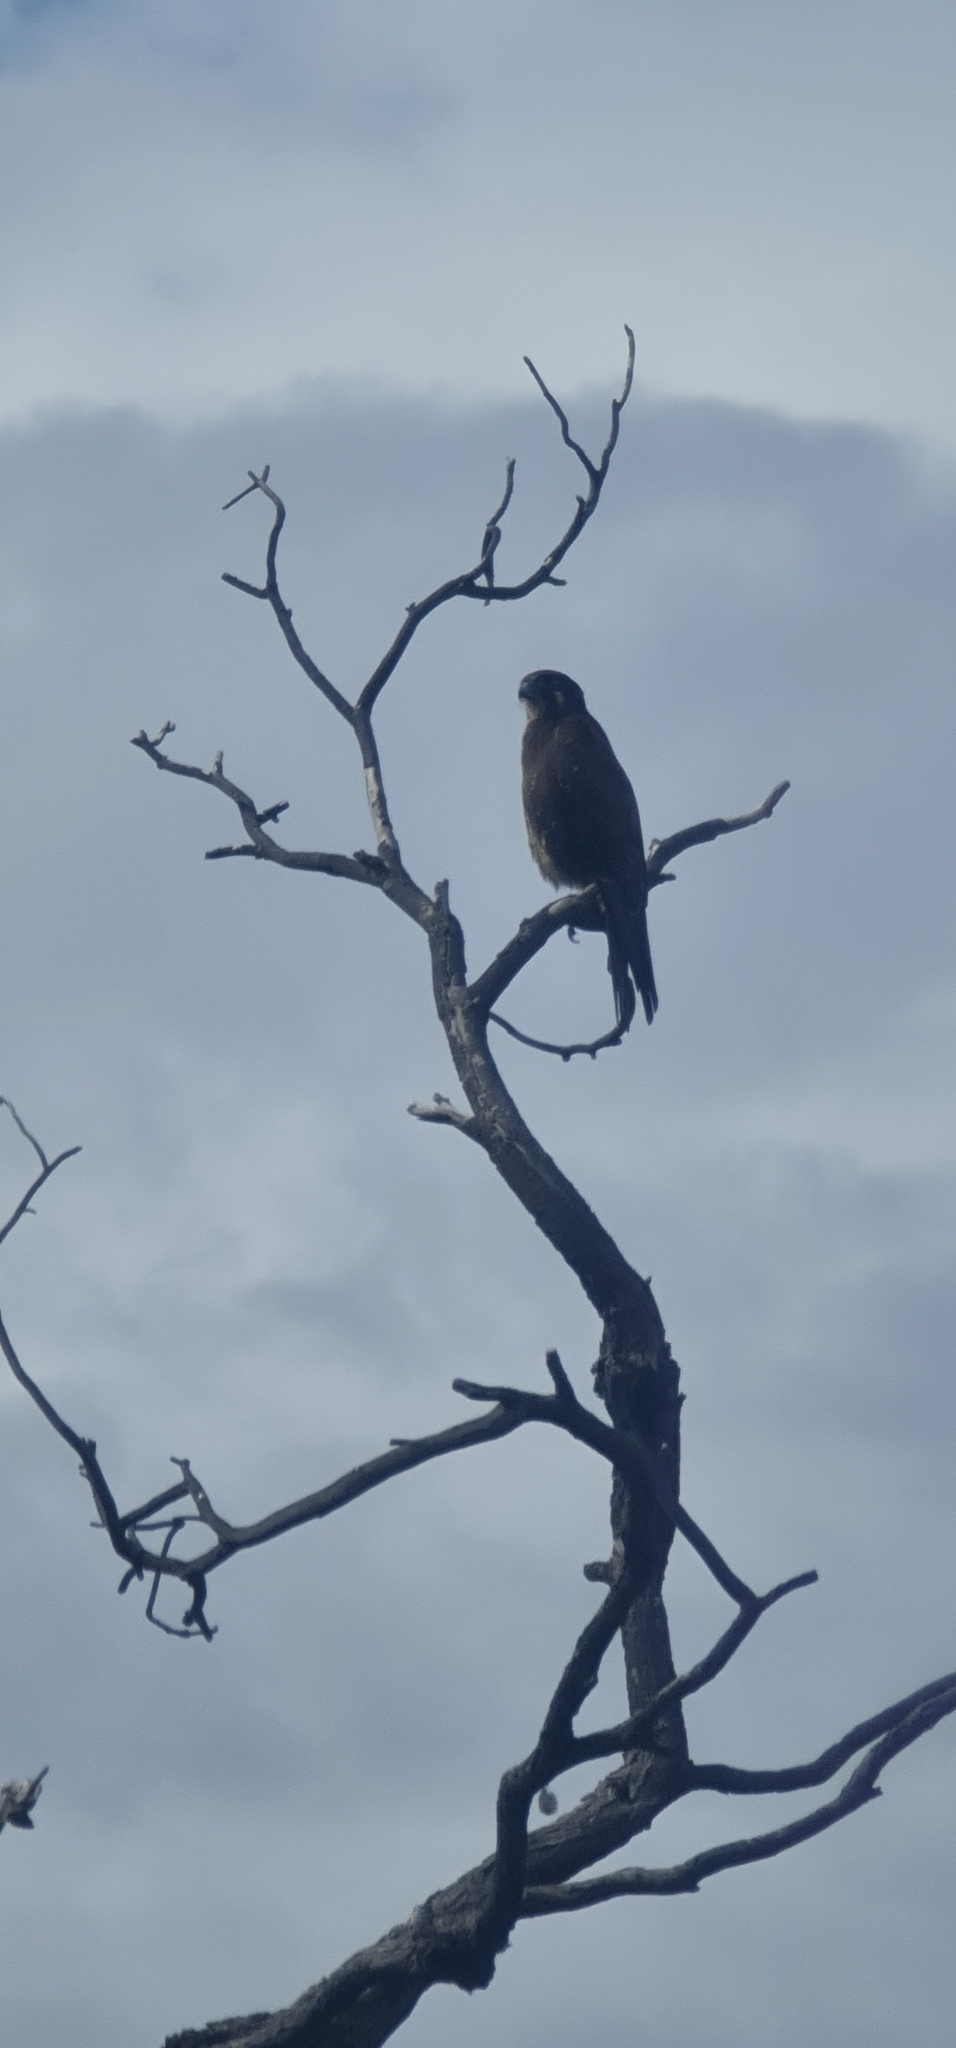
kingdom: Animalia
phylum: Chordata
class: Aves
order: Falconiformes
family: Falconidae
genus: Falco
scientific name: Falco berigora
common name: Brown falcon
